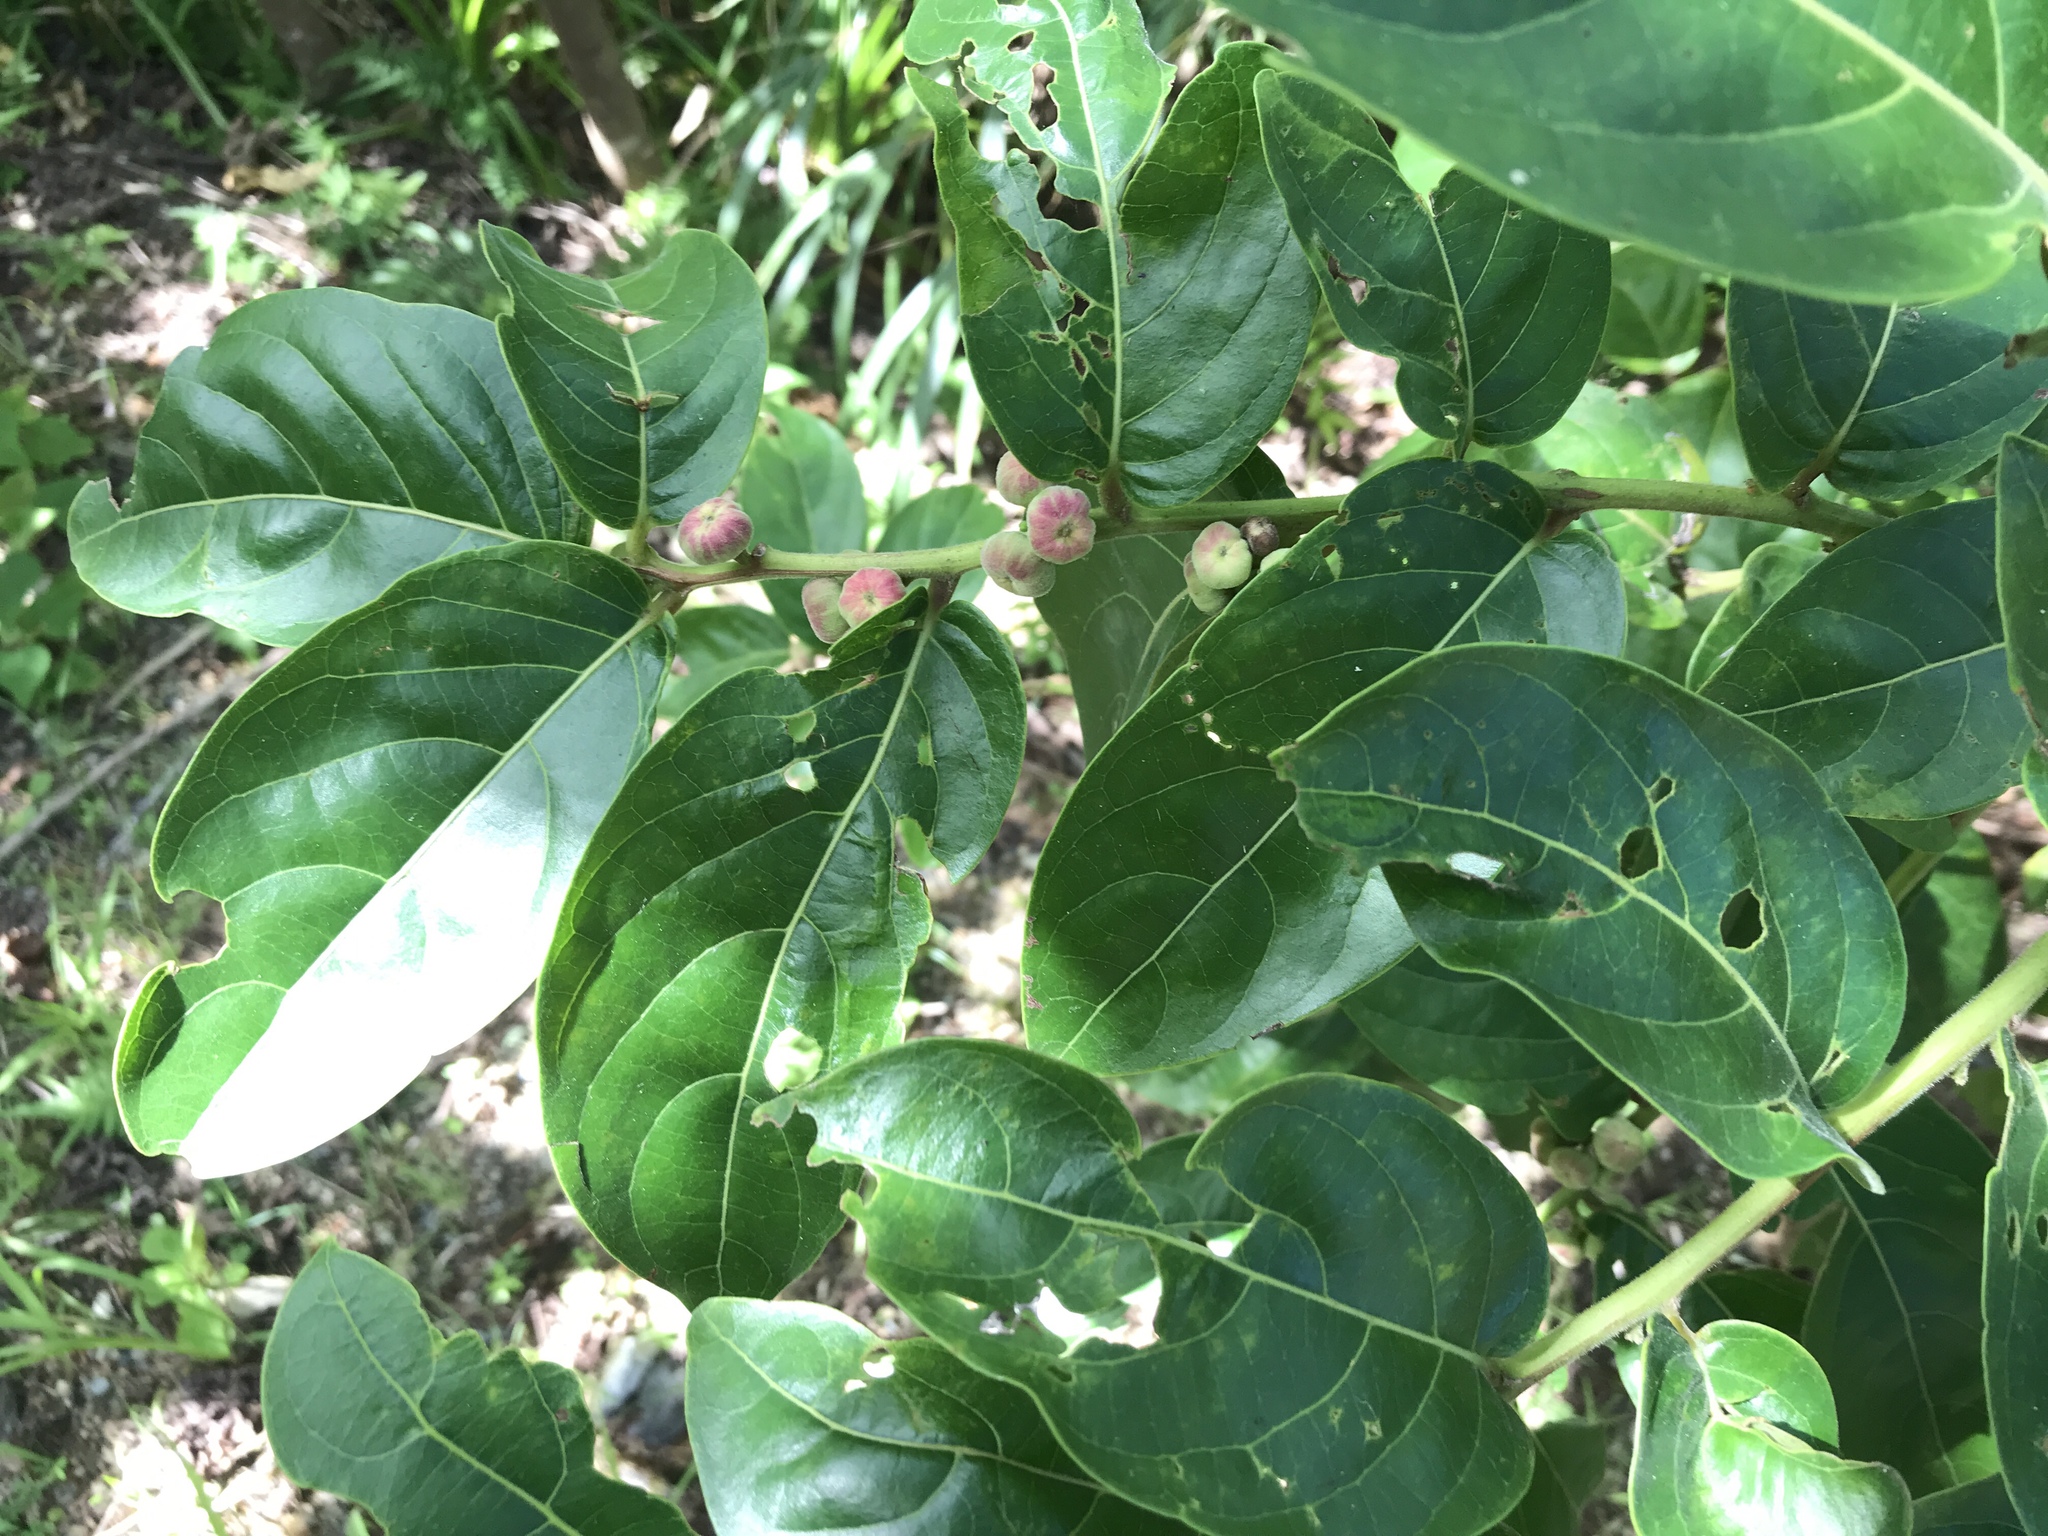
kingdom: Plantae
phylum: Tracheophyta
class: Magnoliopsida
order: Malpighiales
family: Phyllanthaceae
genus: Glochidion
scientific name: Glochidion zeylanicum
